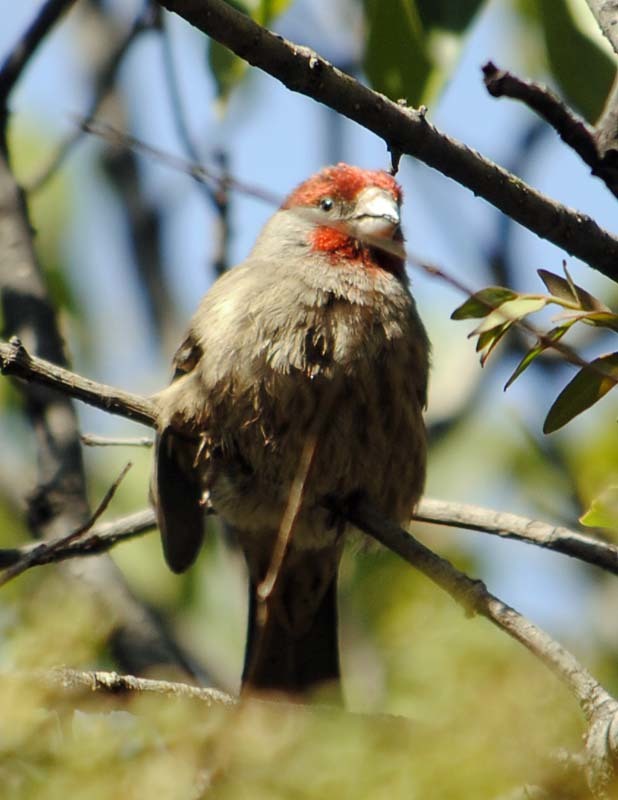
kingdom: Animalia
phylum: Chordata
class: Aves
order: Passeriformes
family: Fringillidae
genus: Haemorhous
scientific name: Haemorhous mexicanus
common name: House finch
